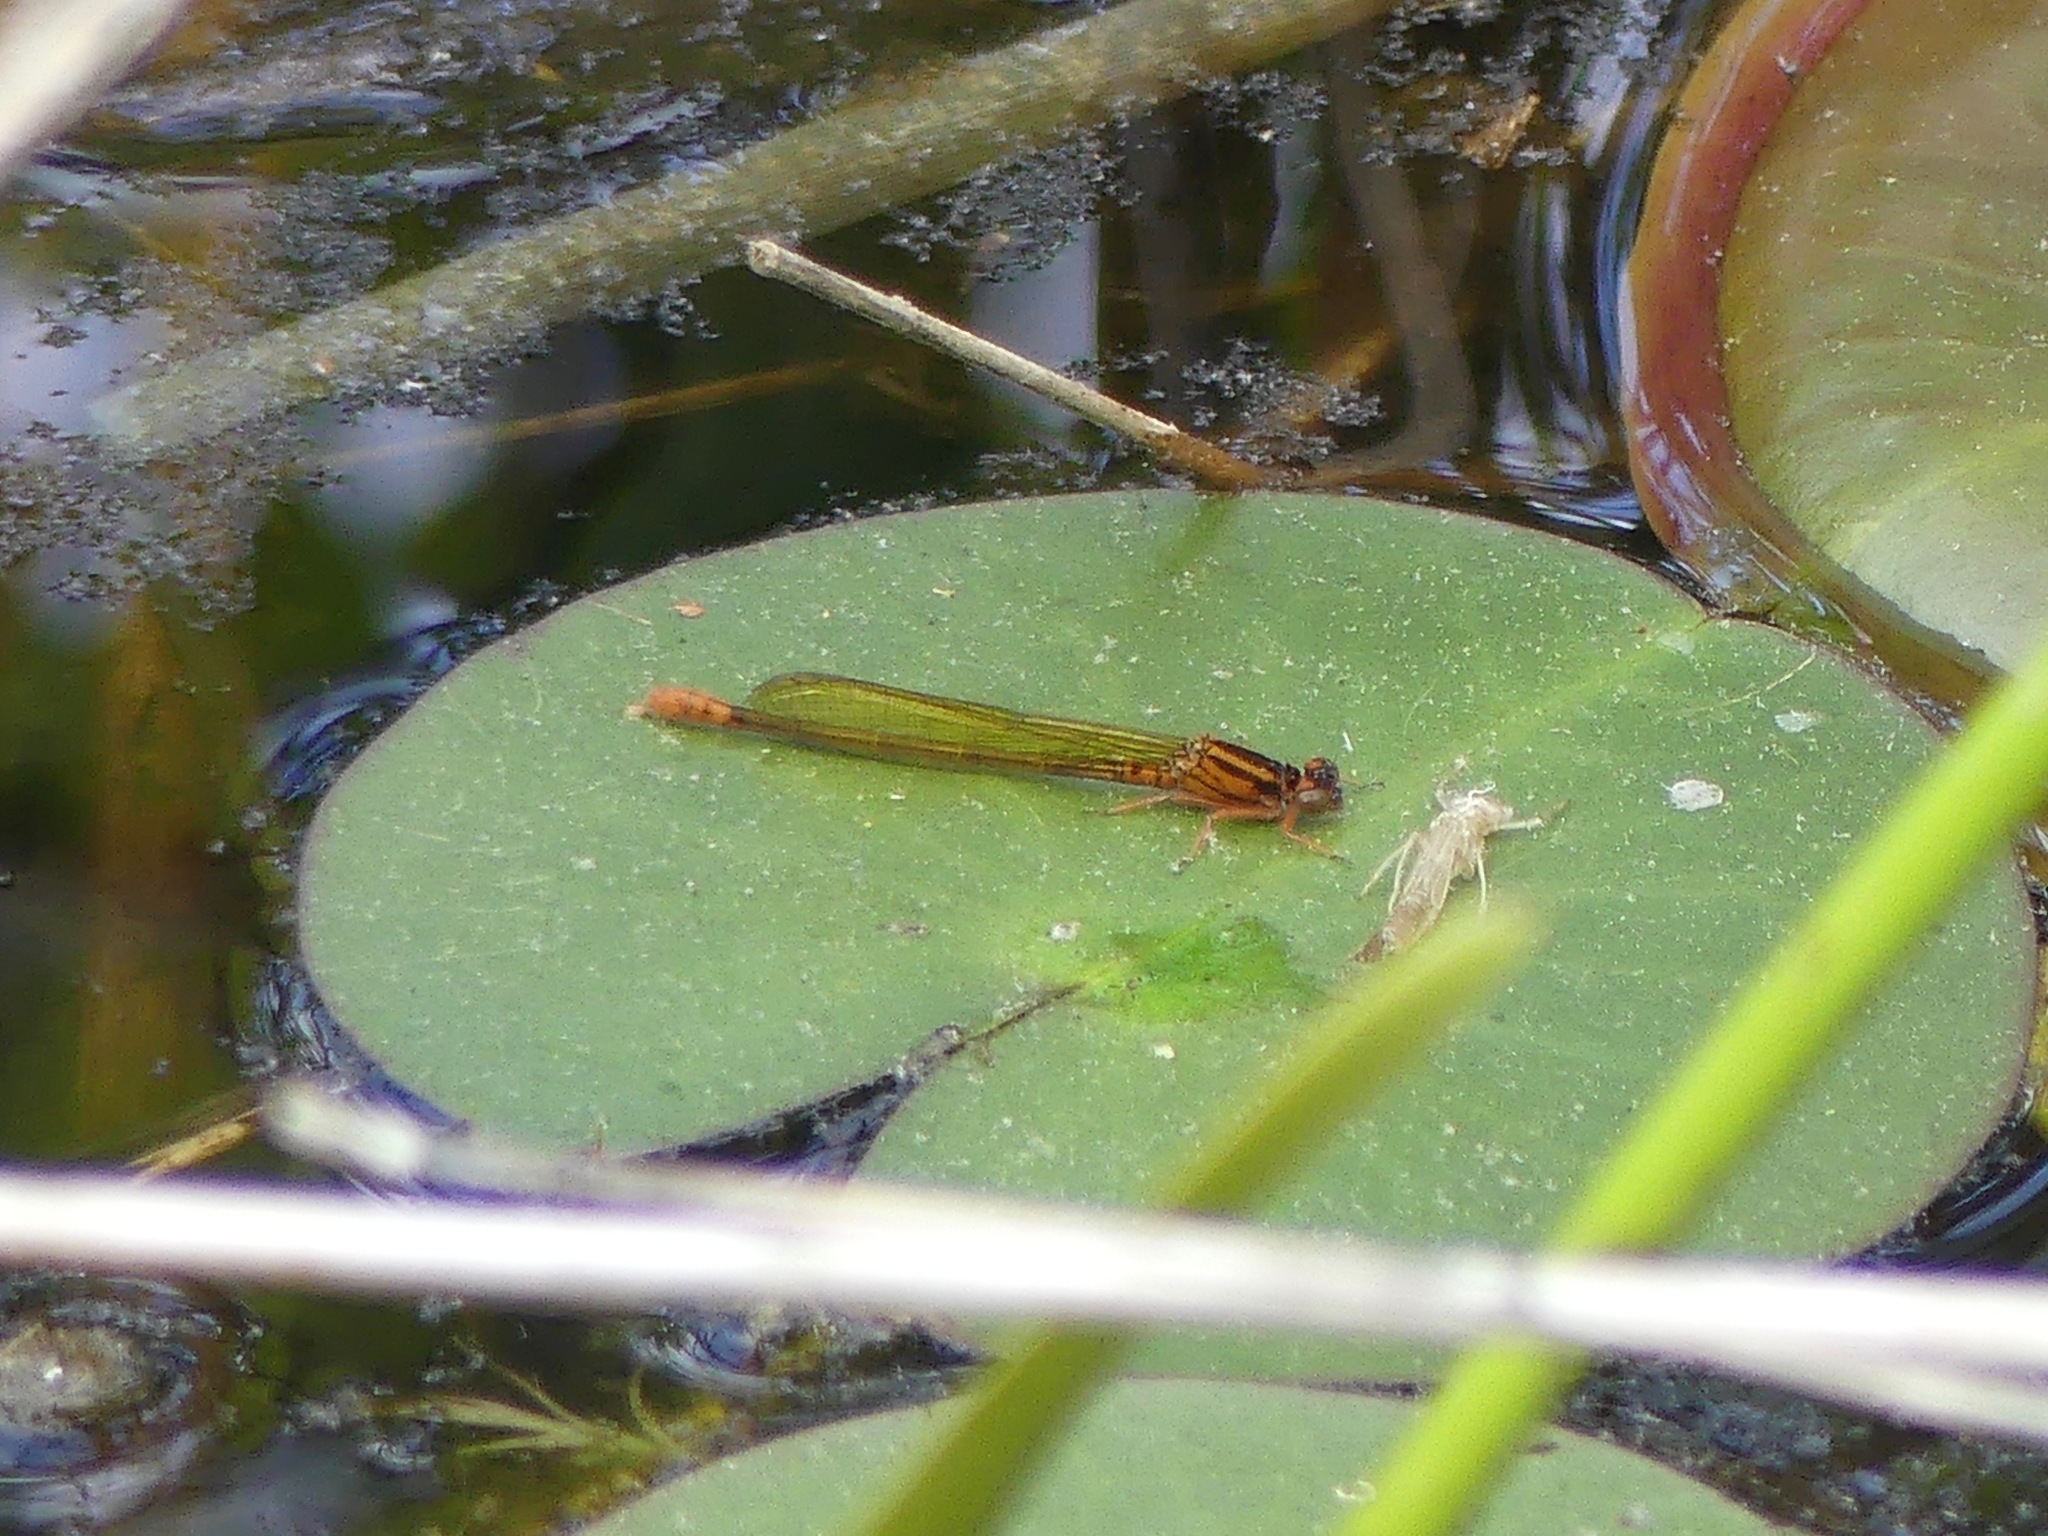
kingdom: Animalia
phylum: Arthropoda
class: Insecta
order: Odonata
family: Coenagrionidae
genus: Ischnura
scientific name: Ischnura kellicotti
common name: Lilypad forktail
